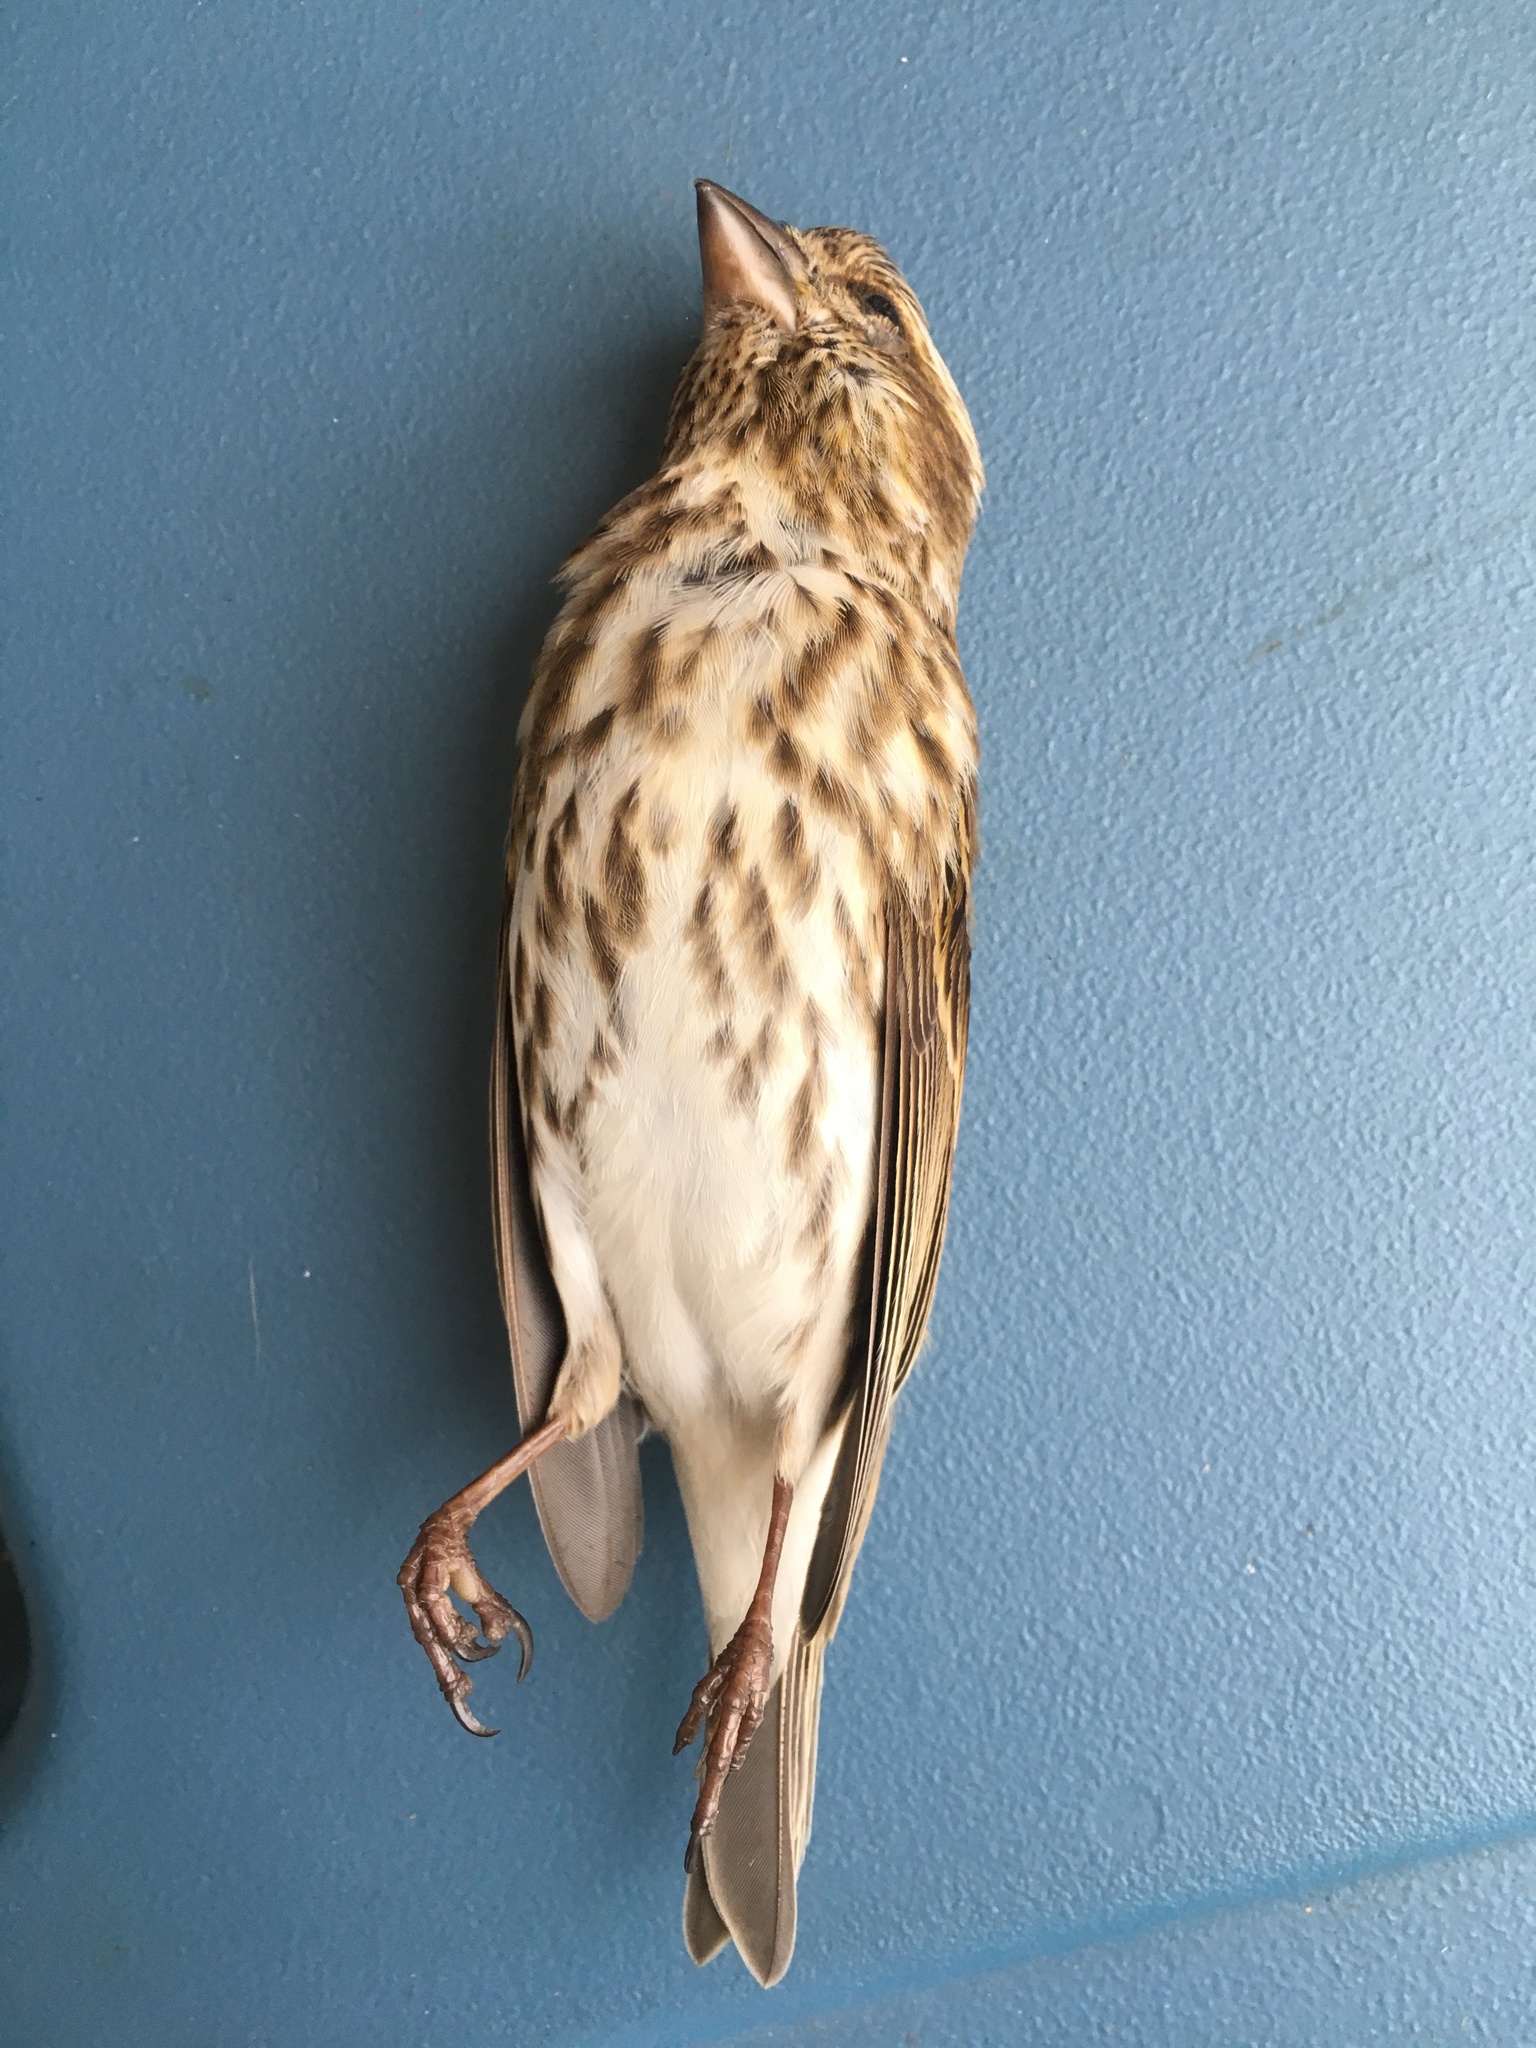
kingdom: Animalia
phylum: Chordata
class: Aves
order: Passeriformes
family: Fringillidae
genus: Haemorhous
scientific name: Haemorhous purpureus
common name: Purple finch
